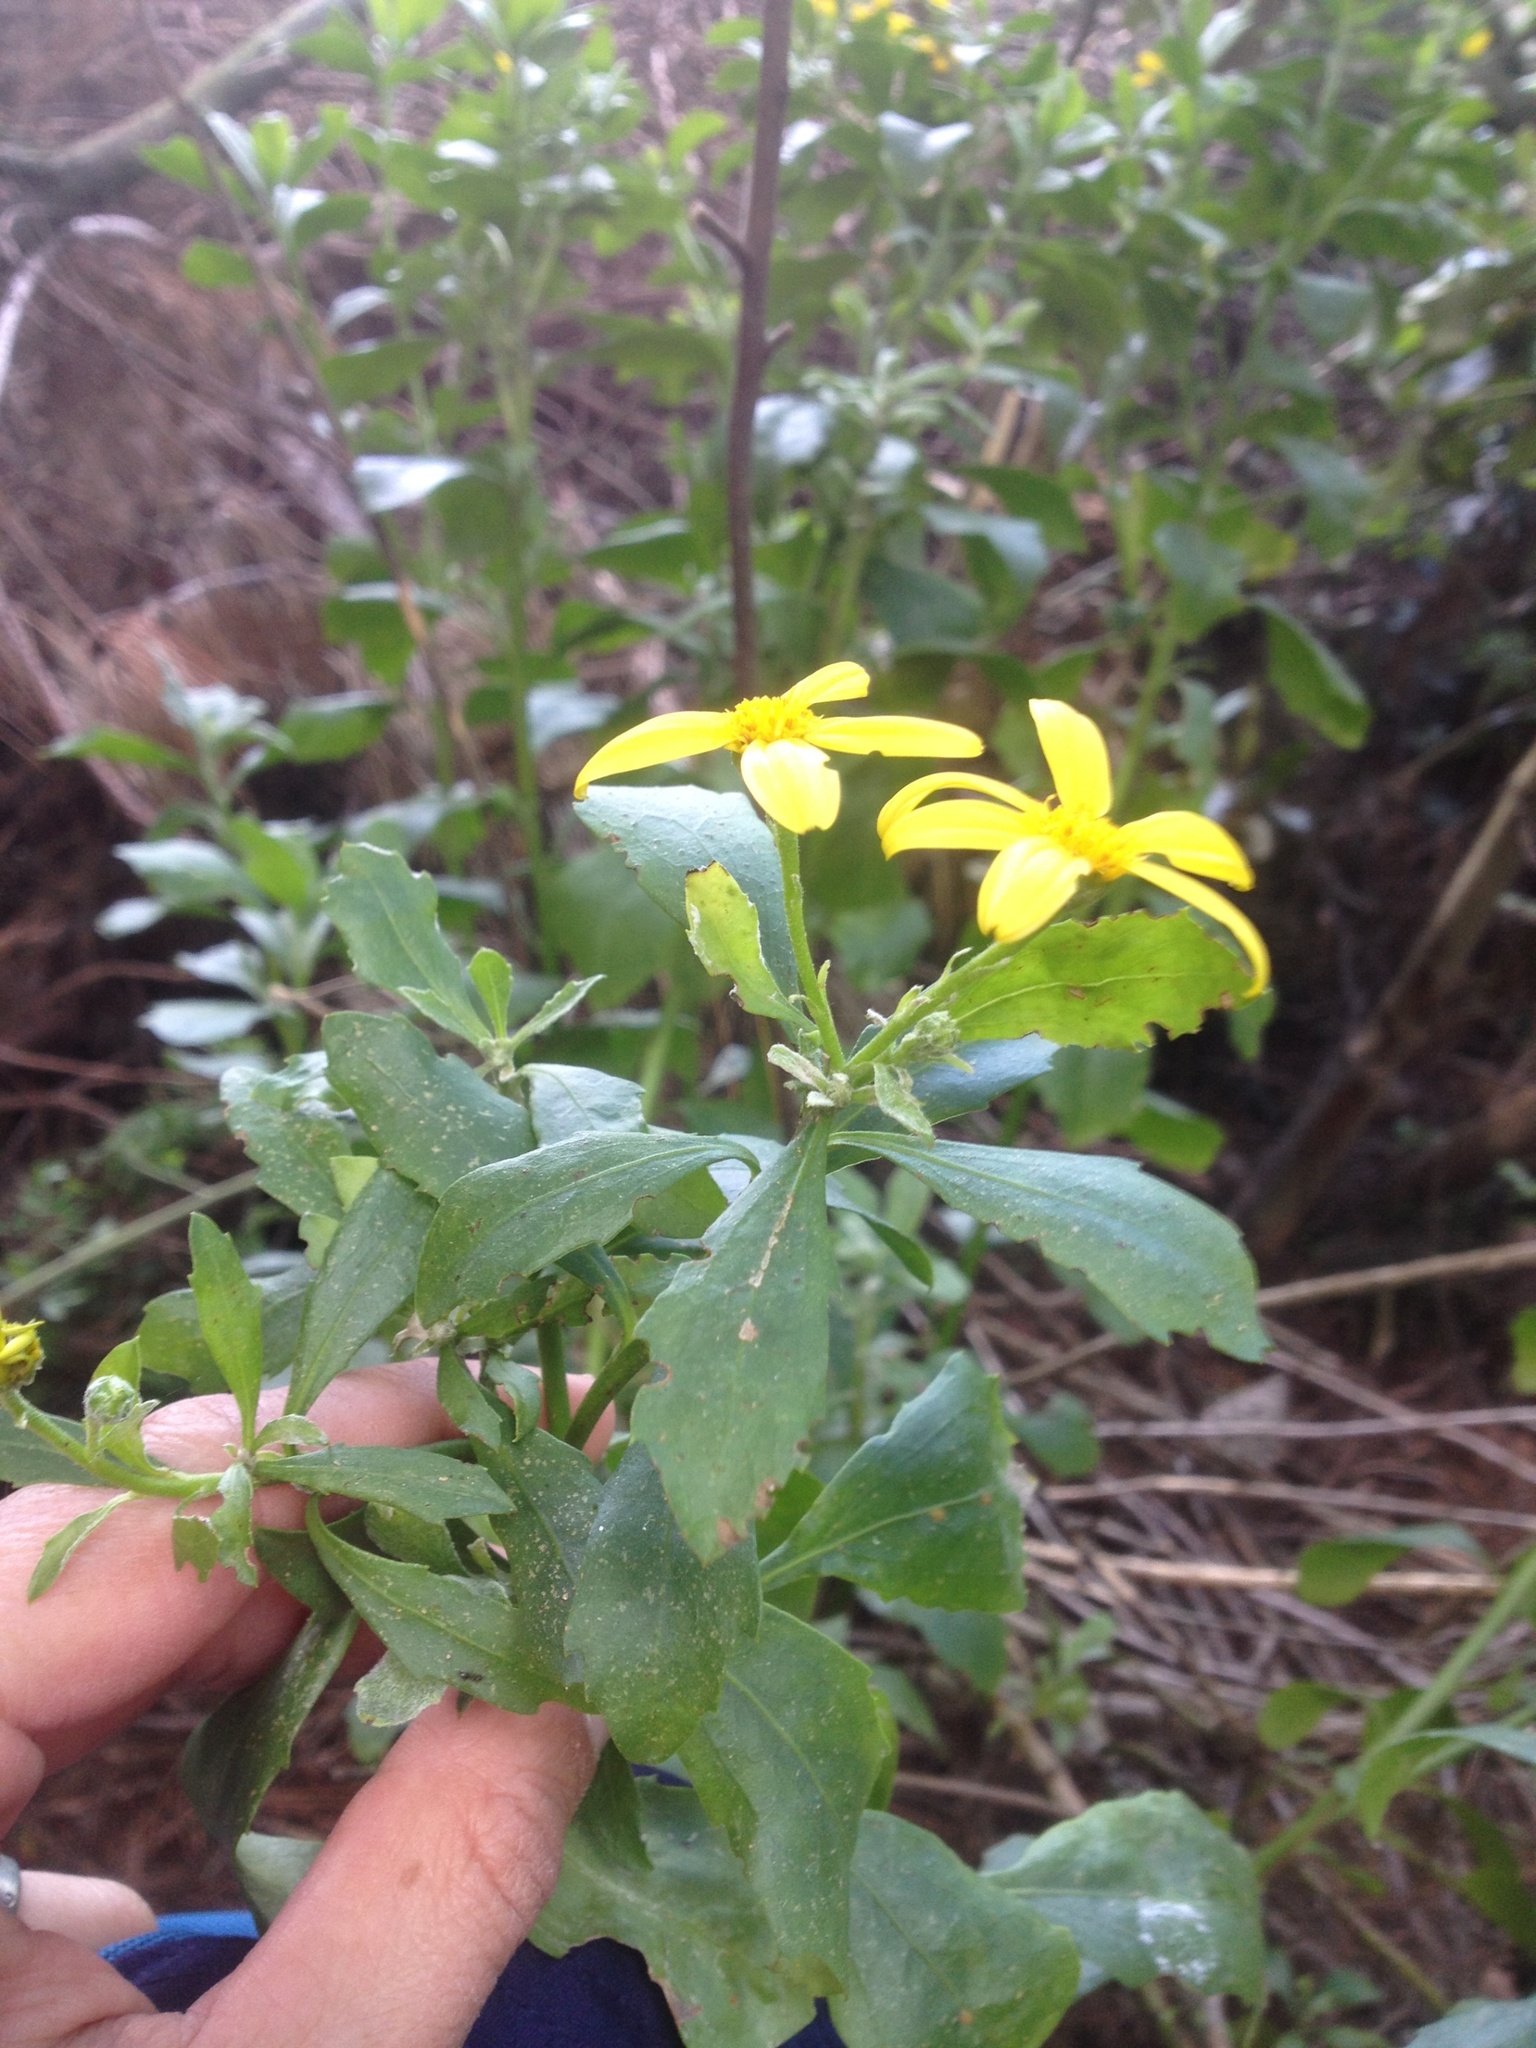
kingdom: Plantae
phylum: Tracheophyta
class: Magnoliopsida
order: Asterales
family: Asteraceae
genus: Osteospermum
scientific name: Osteospermum moniliferum
